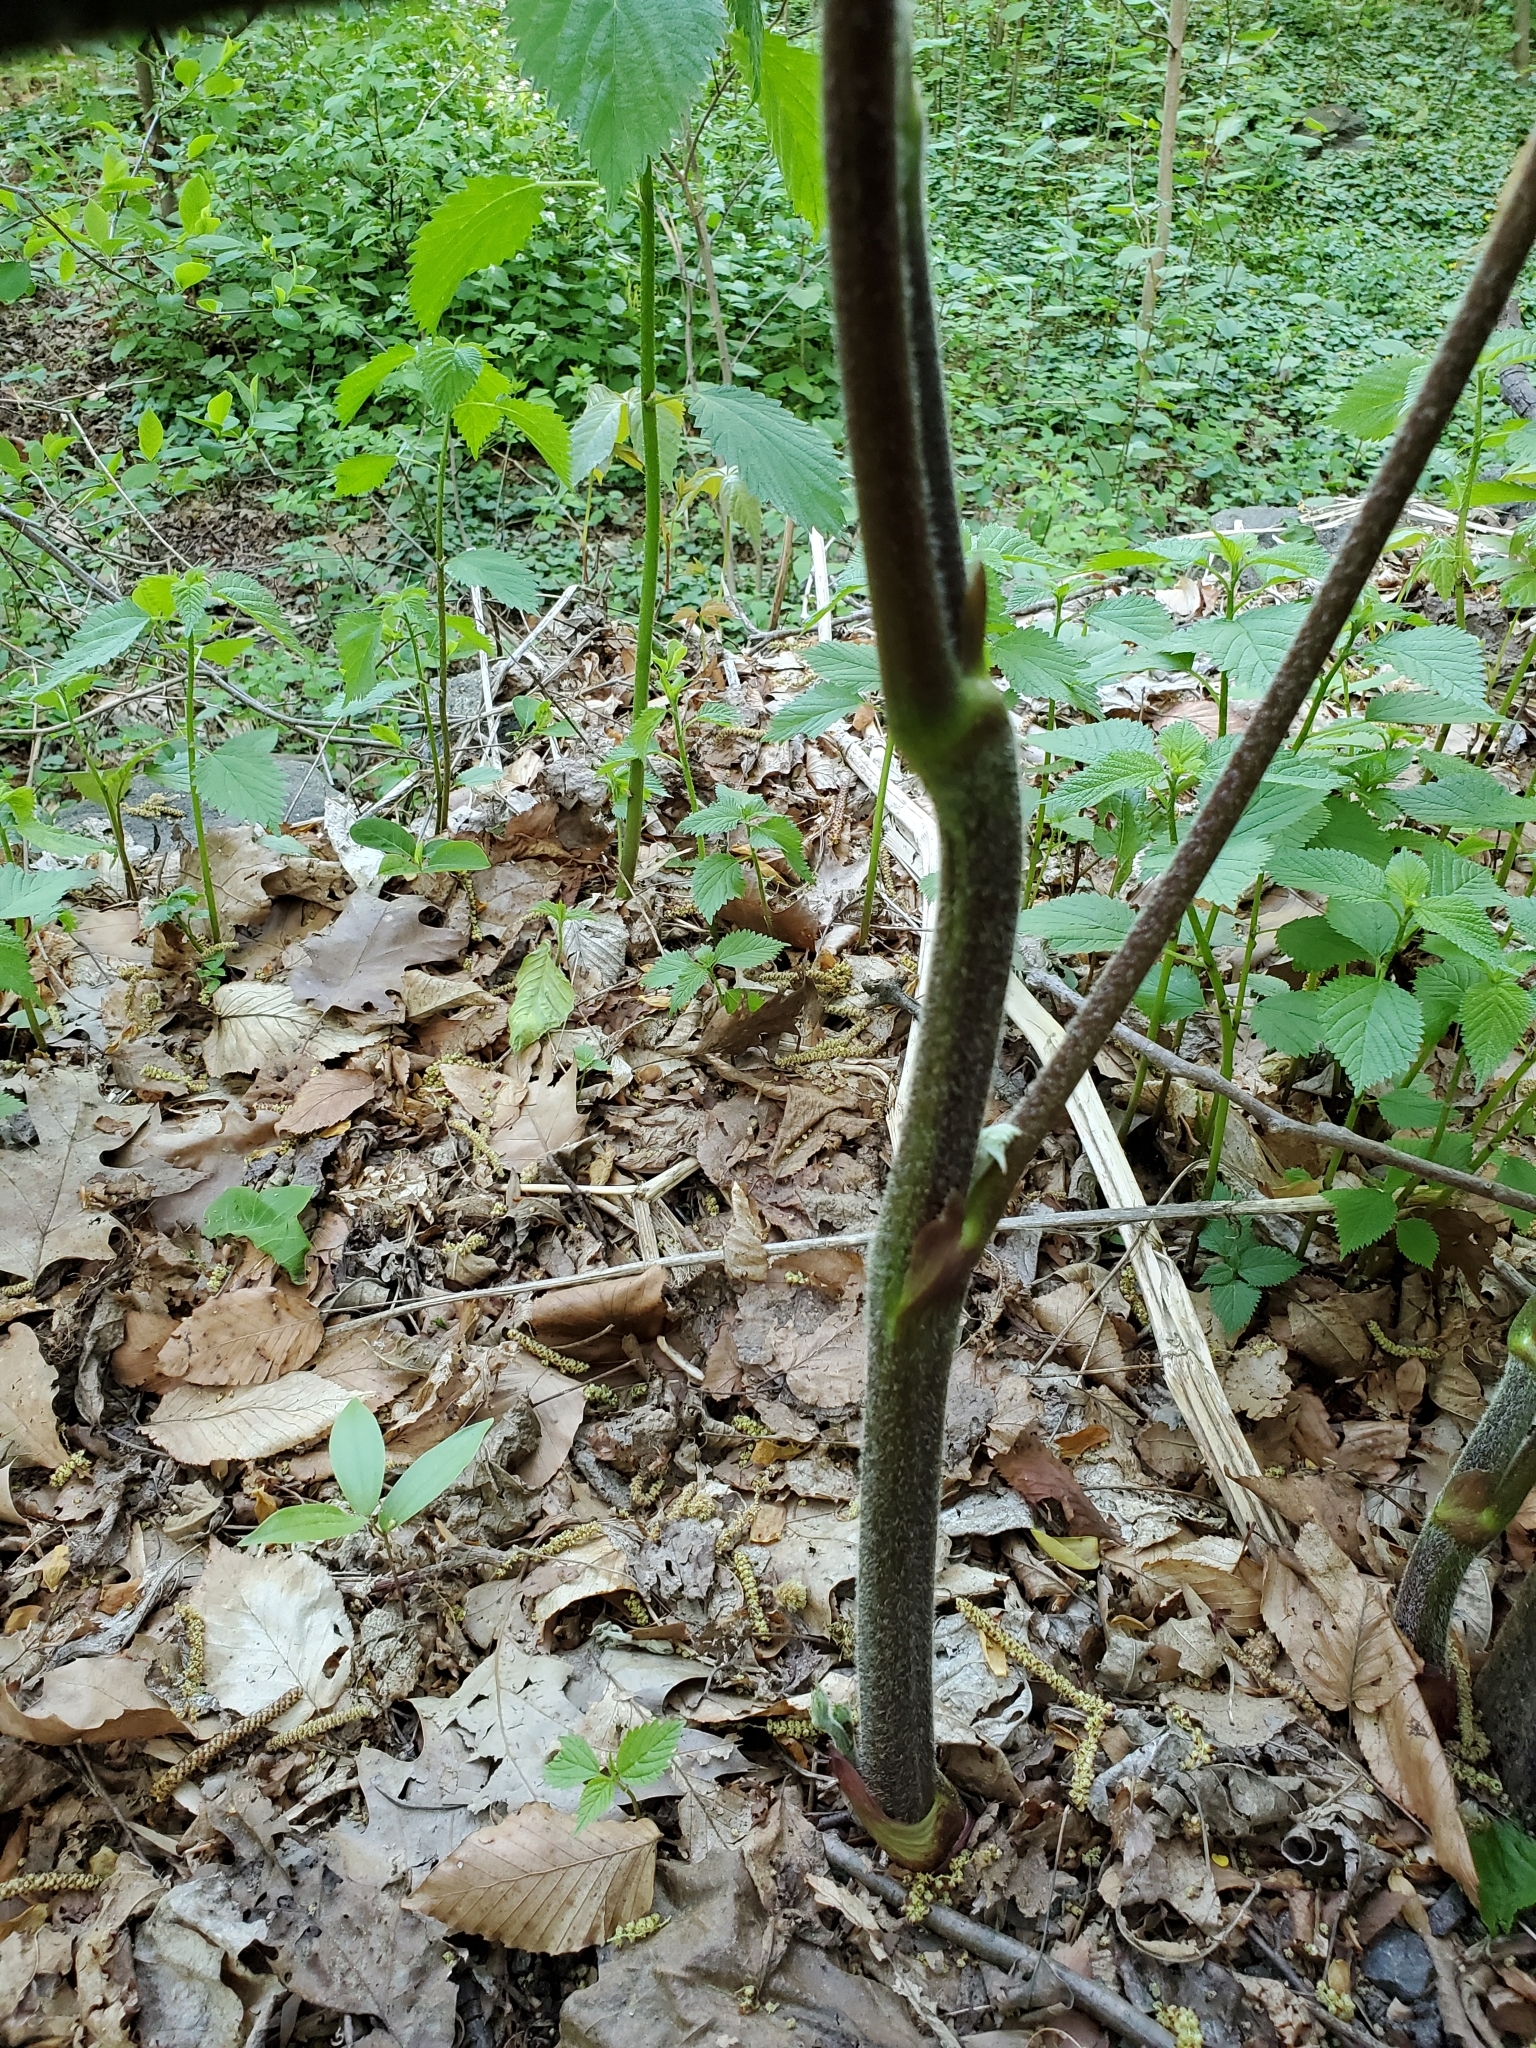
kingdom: Plantae
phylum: Tracheophyta
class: Magnoliopsida
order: Apiales
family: Araliaceae
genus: Aralia
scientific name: Aralia racemosa
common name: American-spikenard
